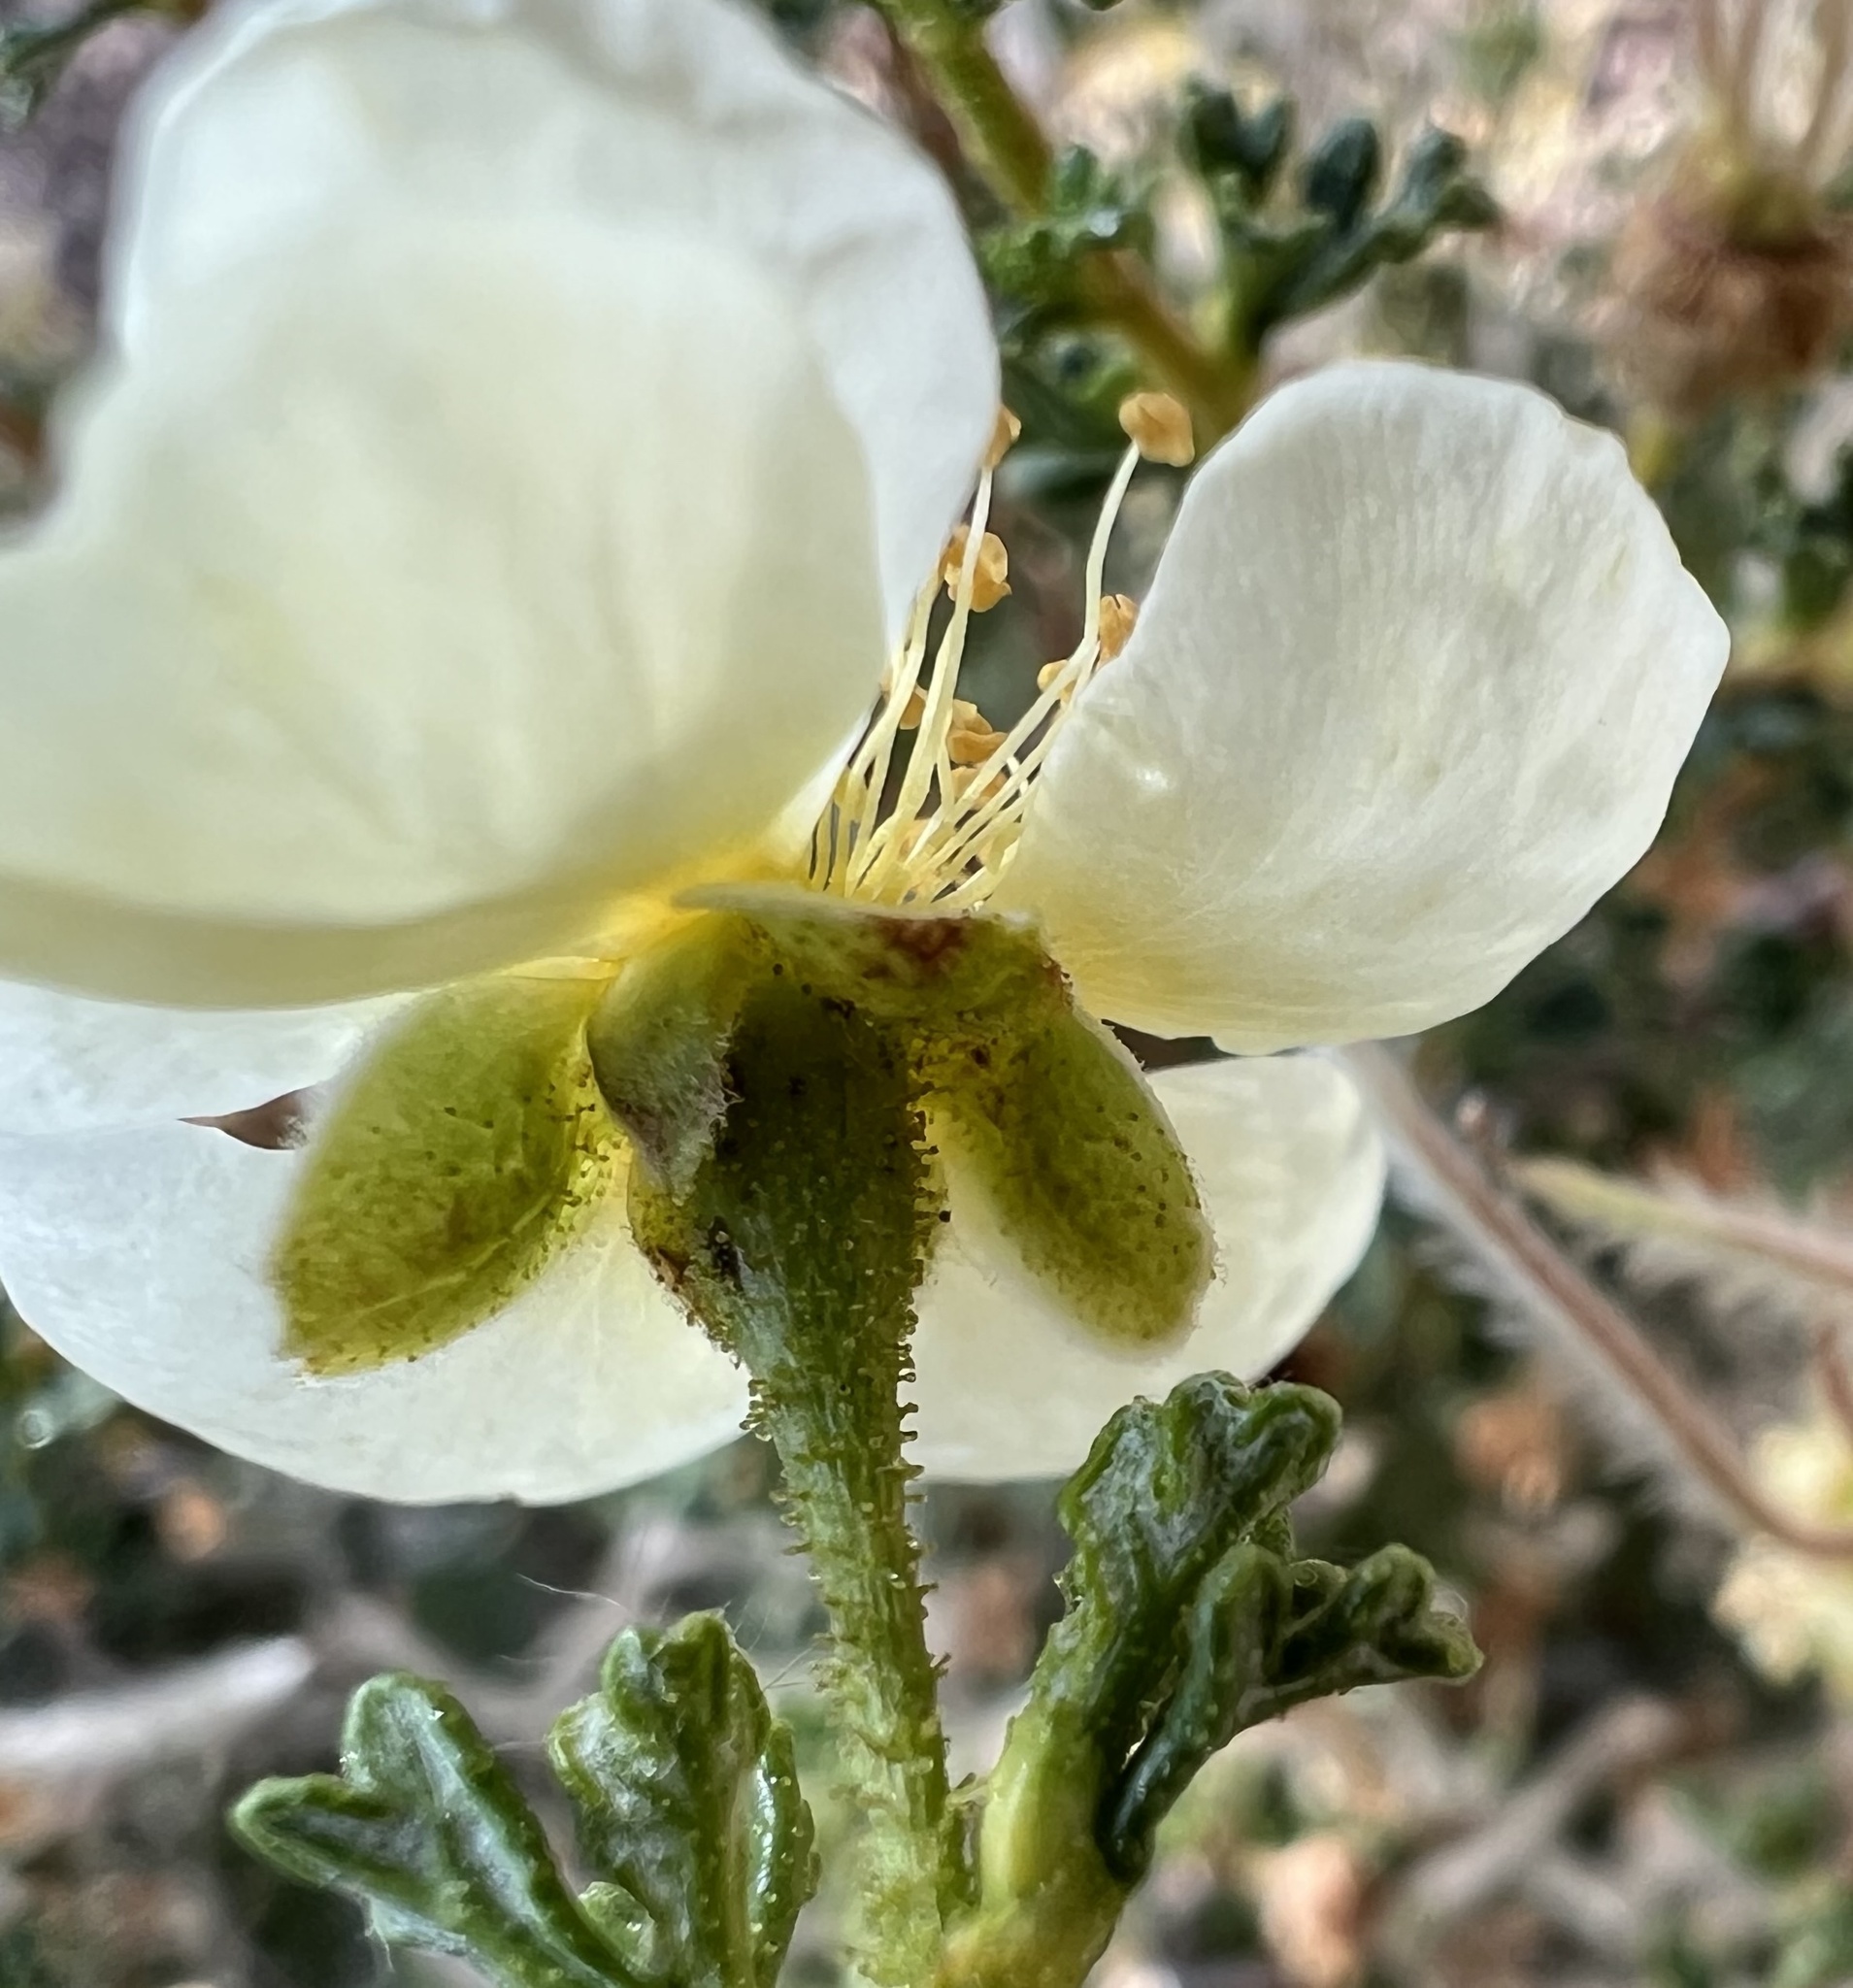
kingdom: Plantae
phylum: Tracheophyta
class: Magnoliopsida
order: Rosales
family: Rosaceae
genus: Purshia
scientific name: Purshia stansburiana
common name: Stansbury's cliffrose
